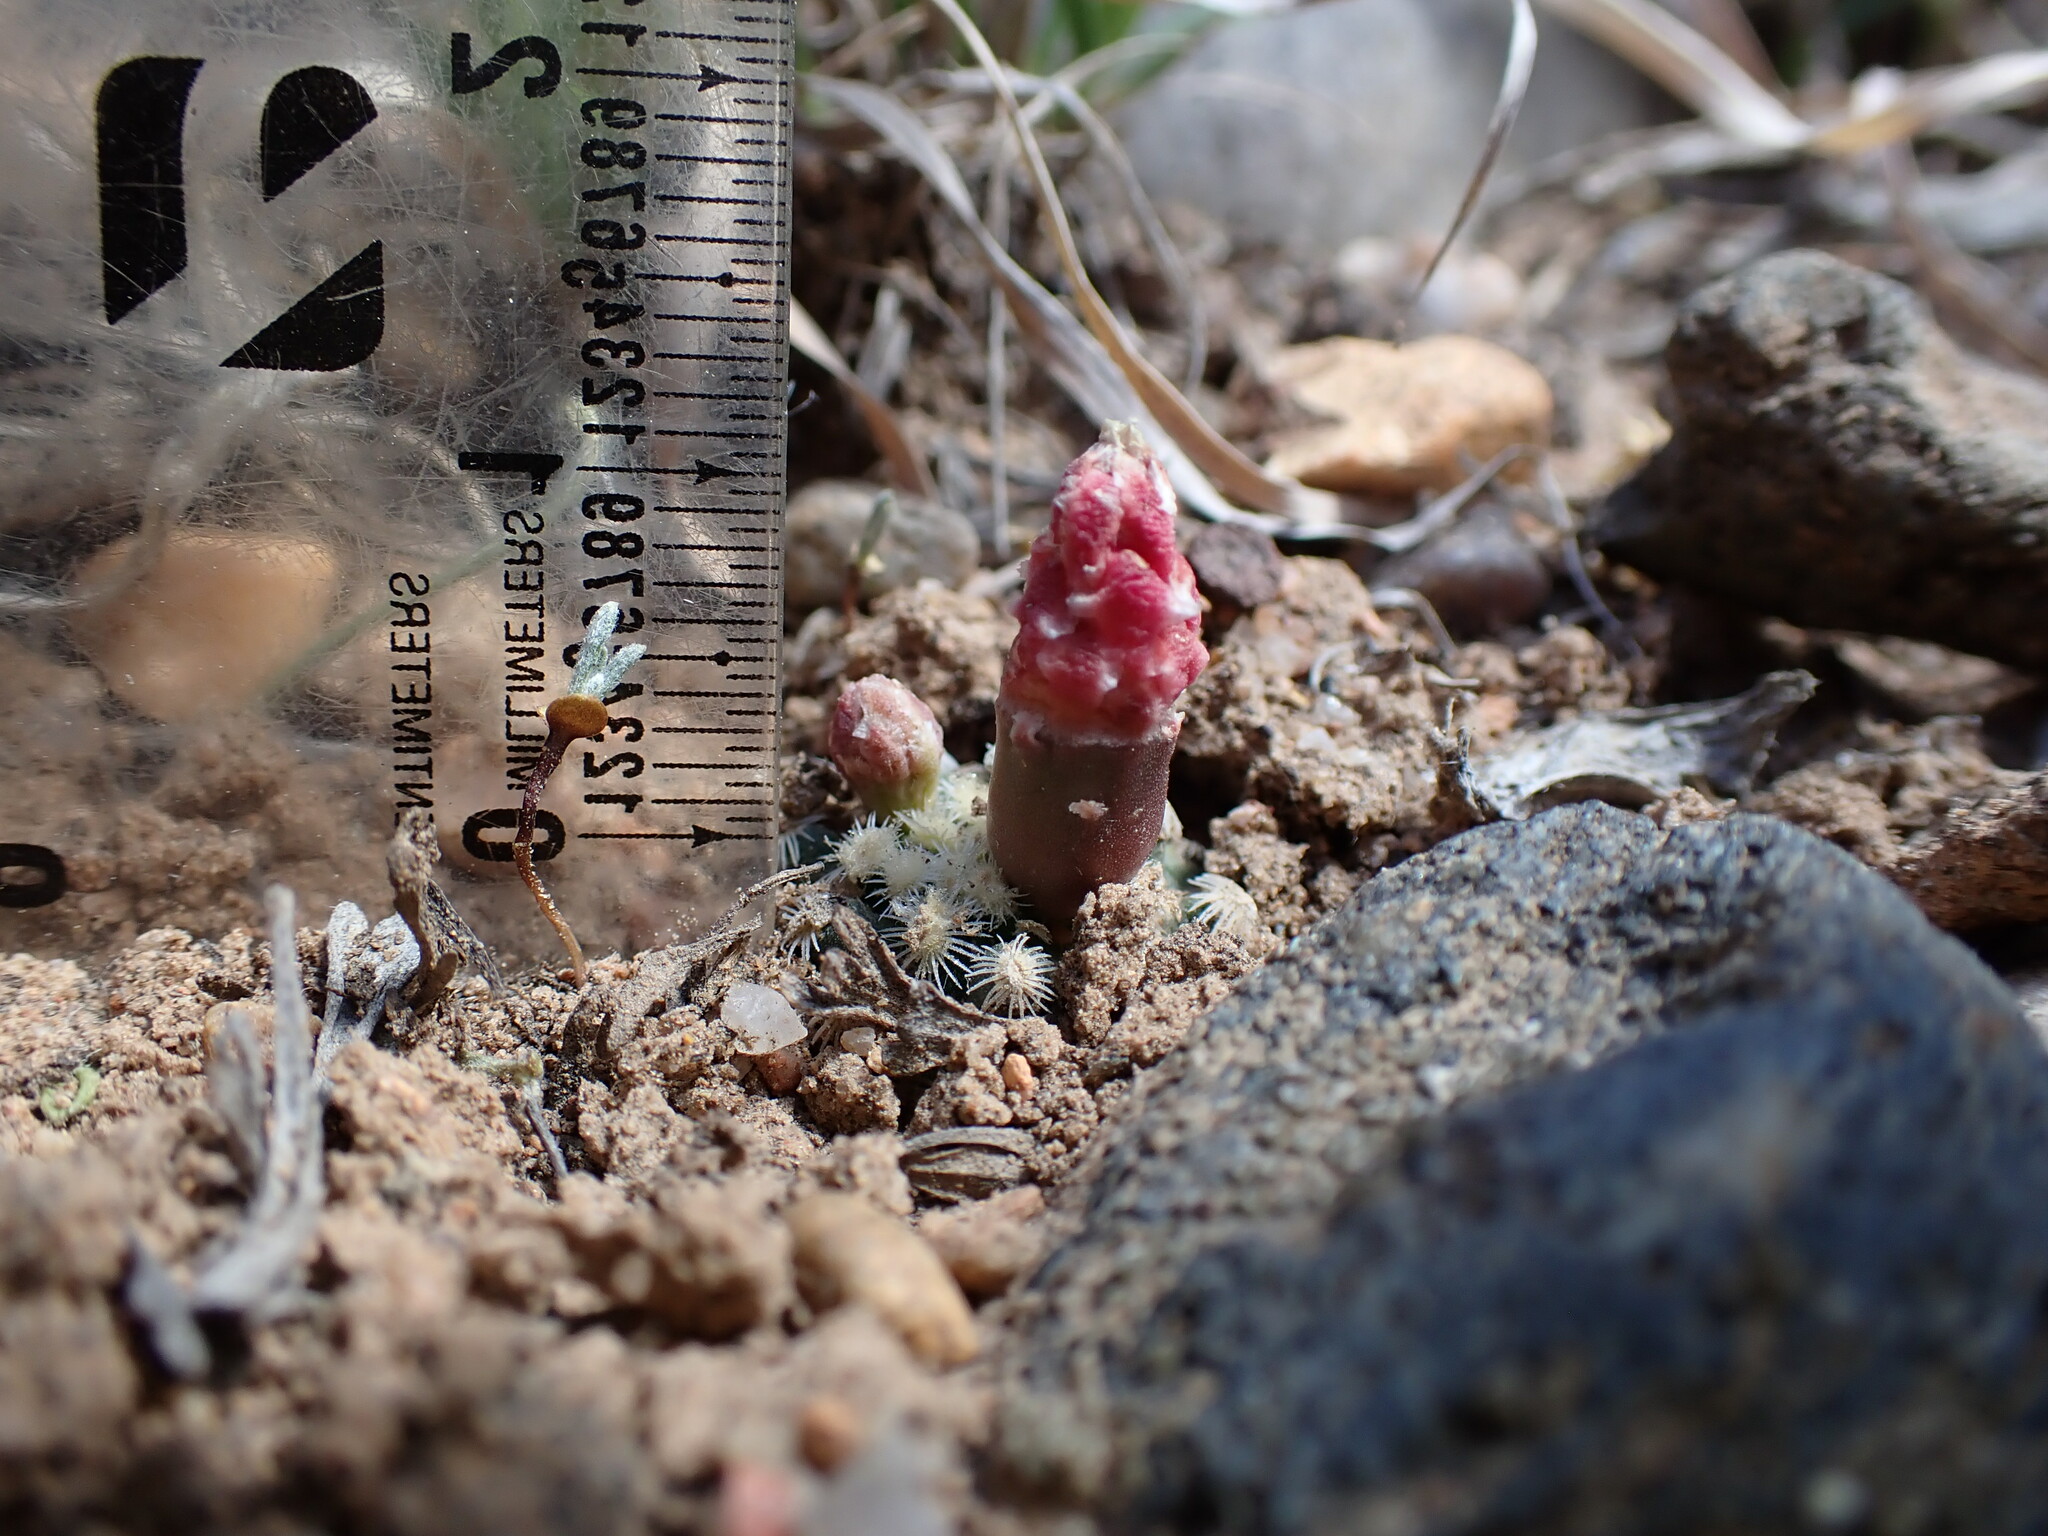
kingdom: Plantae
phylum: Tracheophyta
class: Magnoliopsida
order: Caryophyllales
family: Cactaceae
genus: Pediocactus
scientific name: Pediocactus knowltonii
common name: Knowlton's cactus
